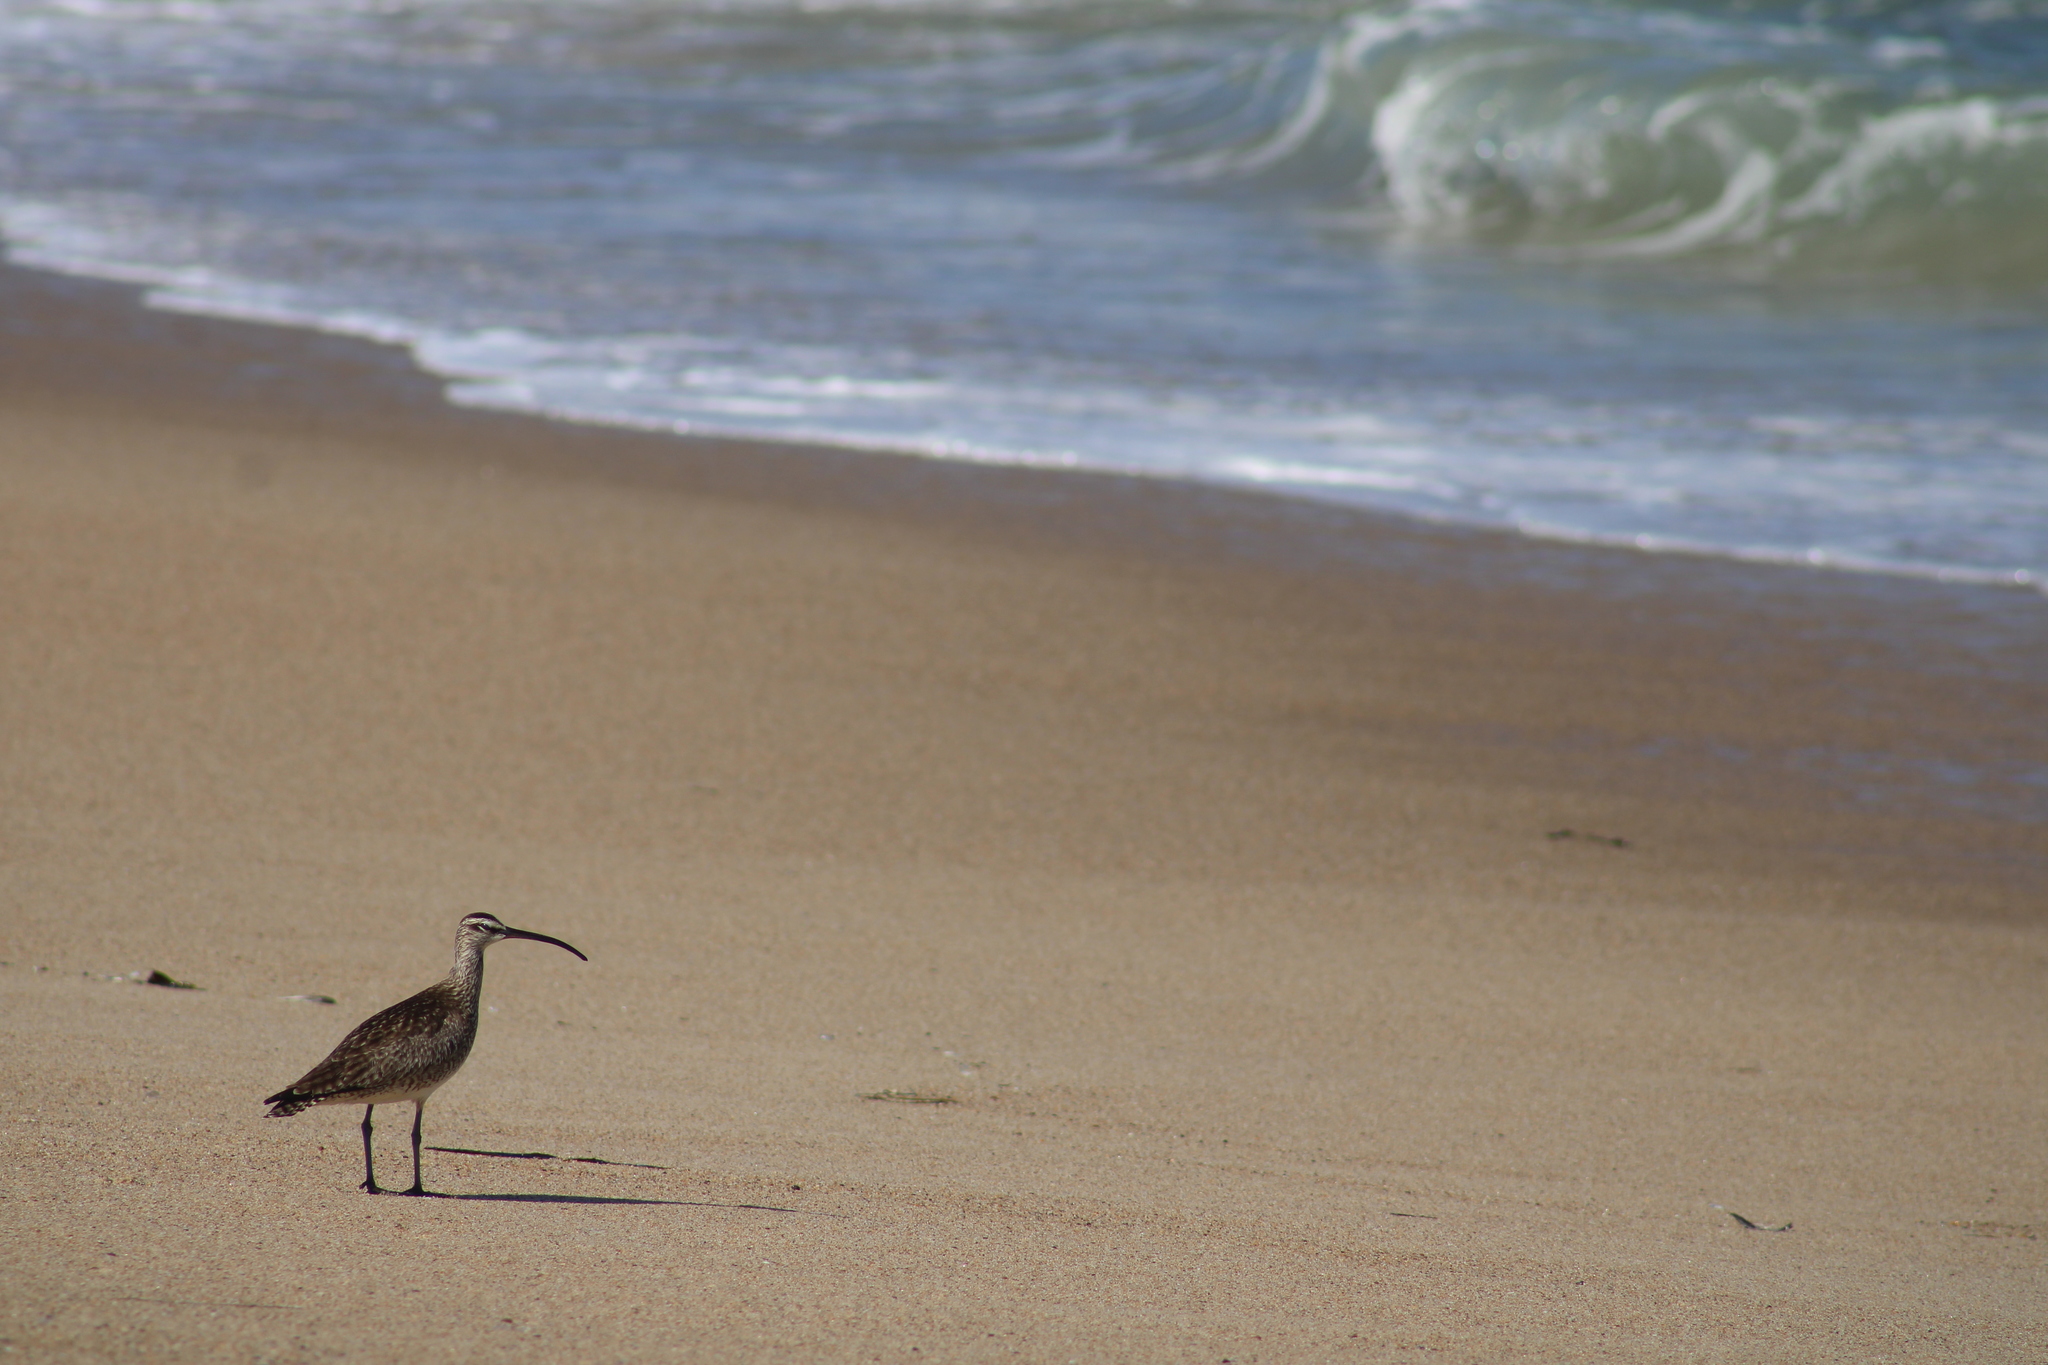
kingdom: Animalia
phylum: Chordata
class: Aves
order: Charadriiformes
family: Scolopacidae
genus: Numenius
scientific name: Numenius phaeopus
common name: Whimbrel
